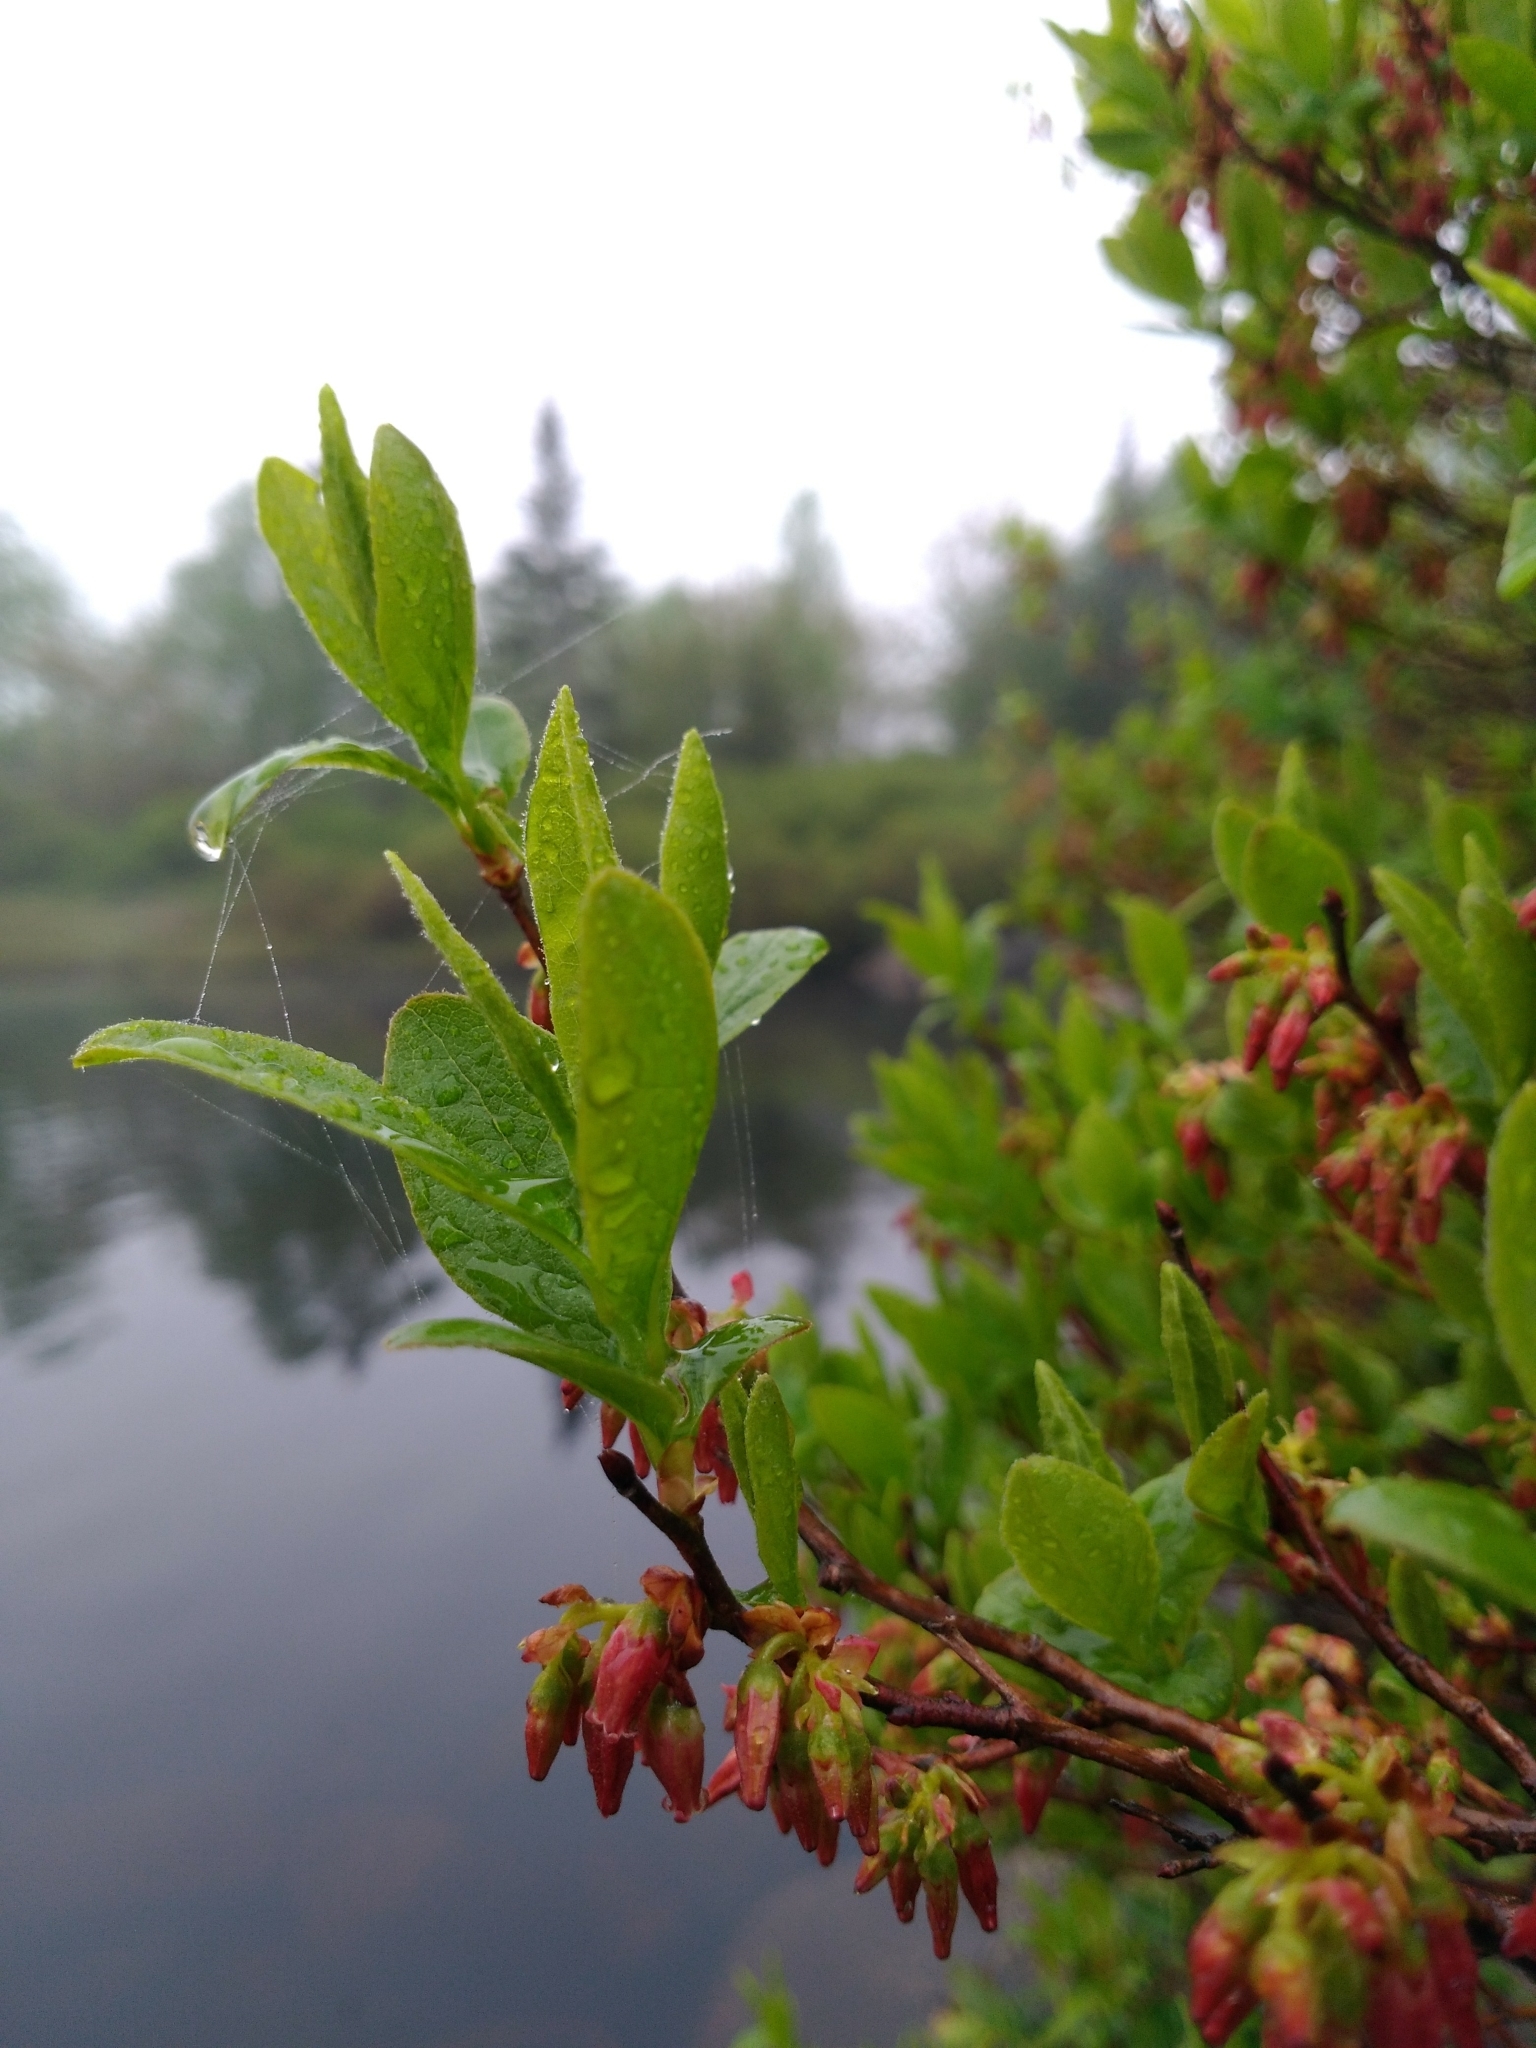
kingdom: Plantae
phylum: Tracheophyta
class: Magnoliopsida
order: Ericales
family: Ericaceae
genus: Gaylussacia
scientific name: Gaylussacia baccata
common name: Black huckleberry
